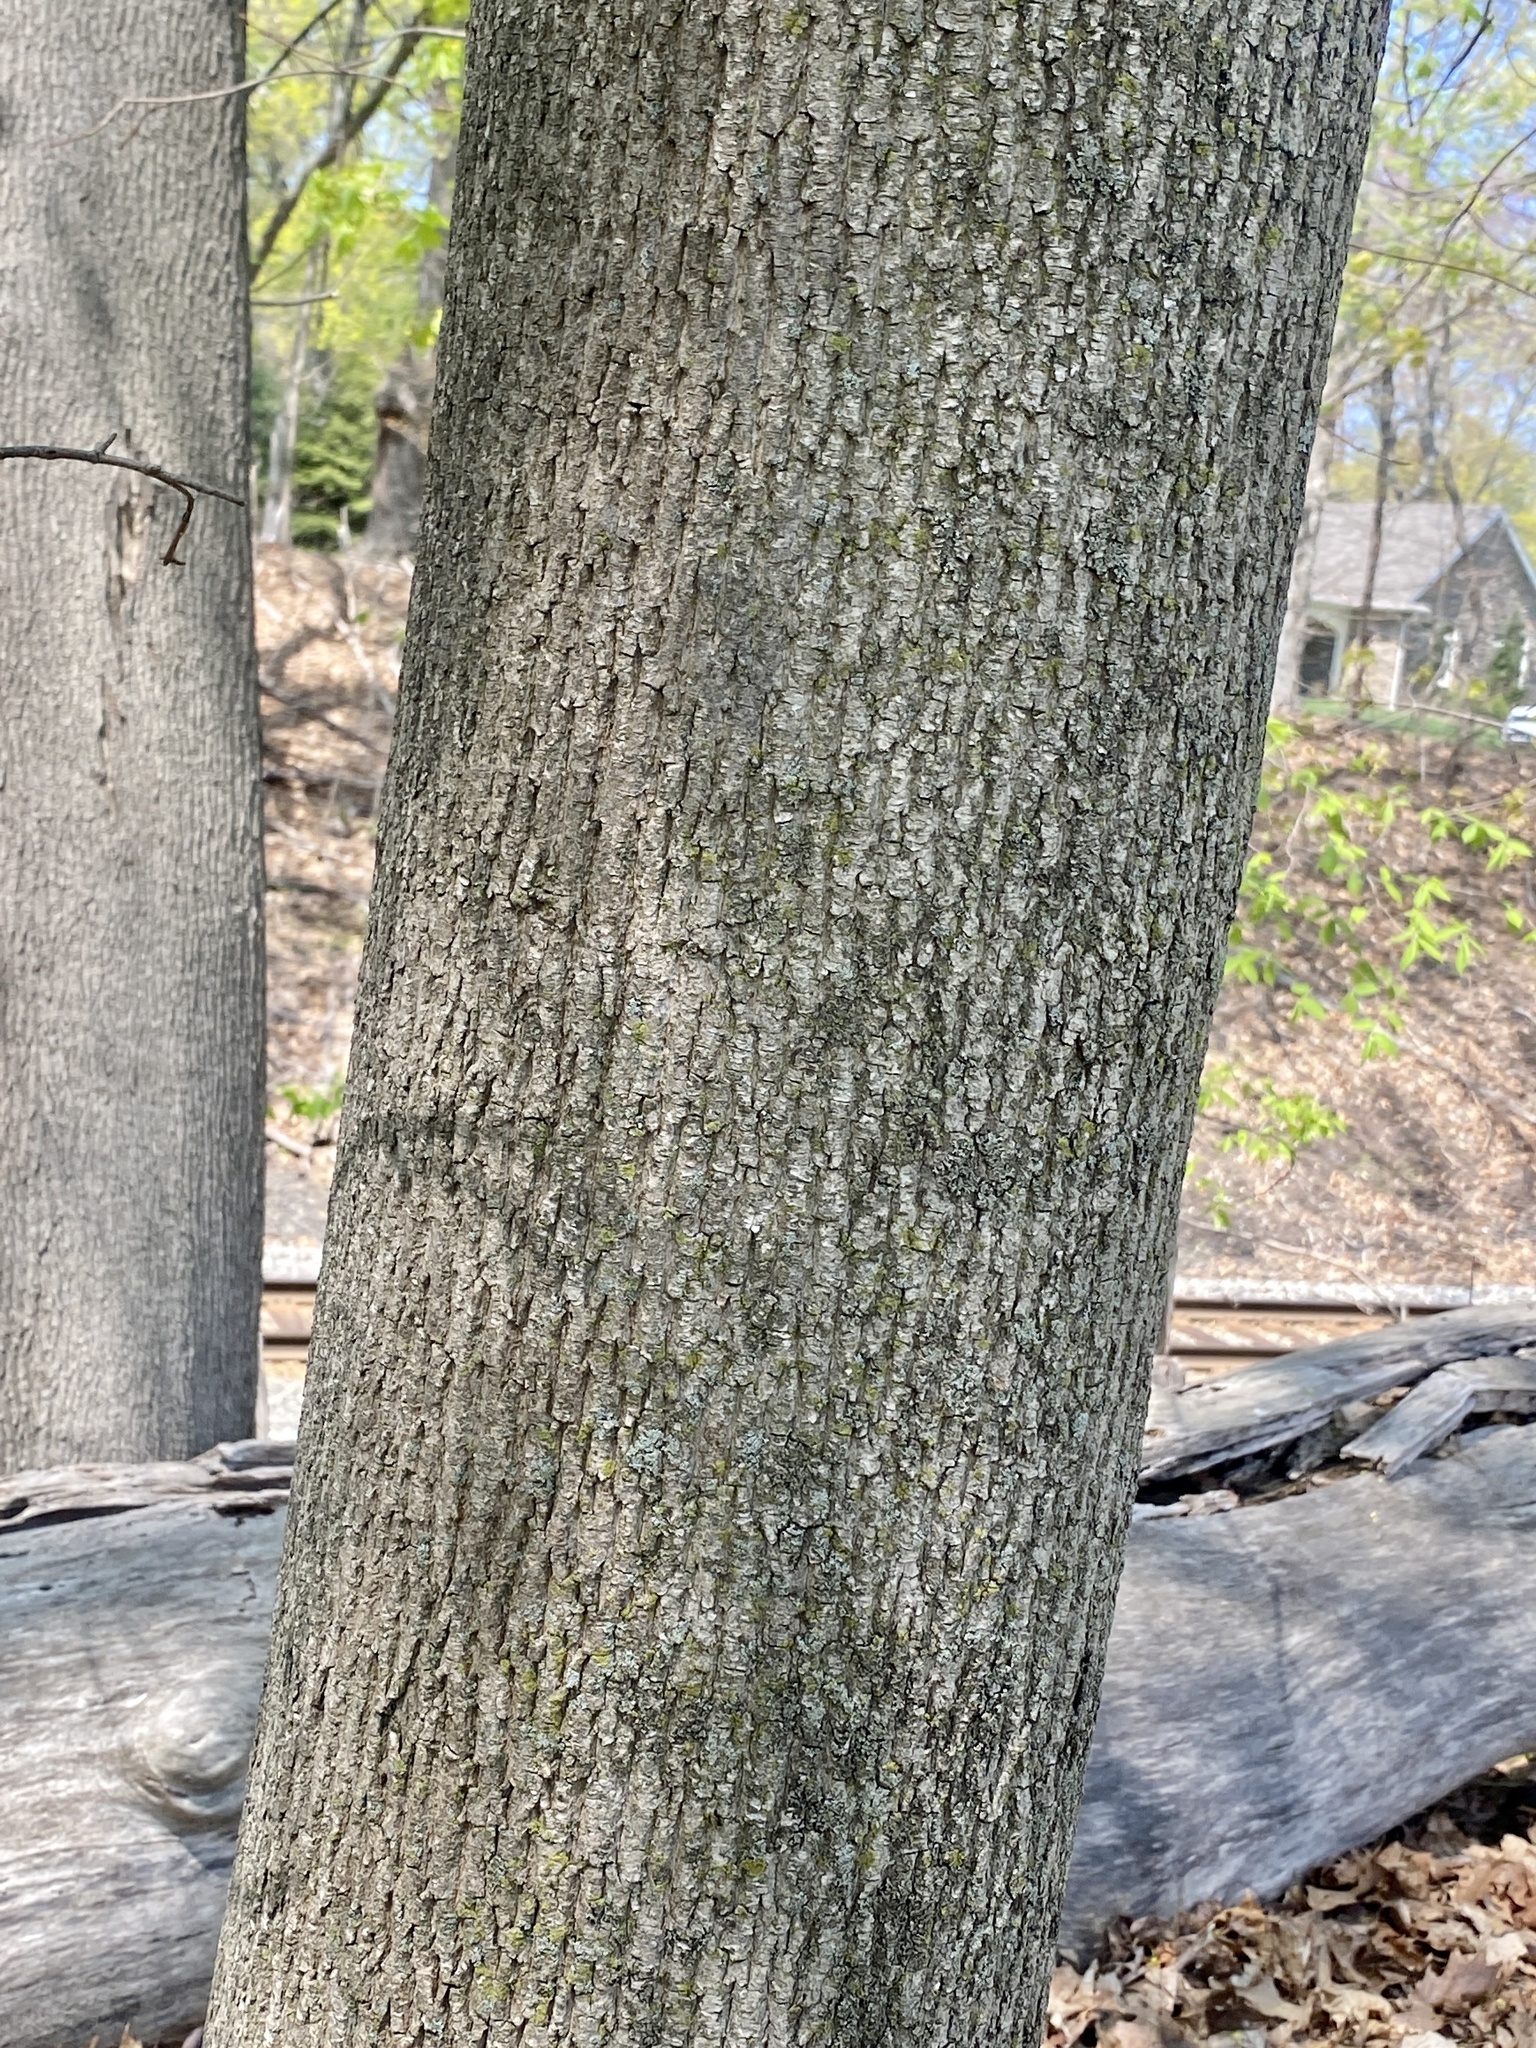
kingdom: Plantae
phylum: Tracheophyta
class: Magnoliopsida
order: Sapindales
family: Sapindaceae
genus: Acer
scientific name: Acer platanoides
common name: Norway maple
